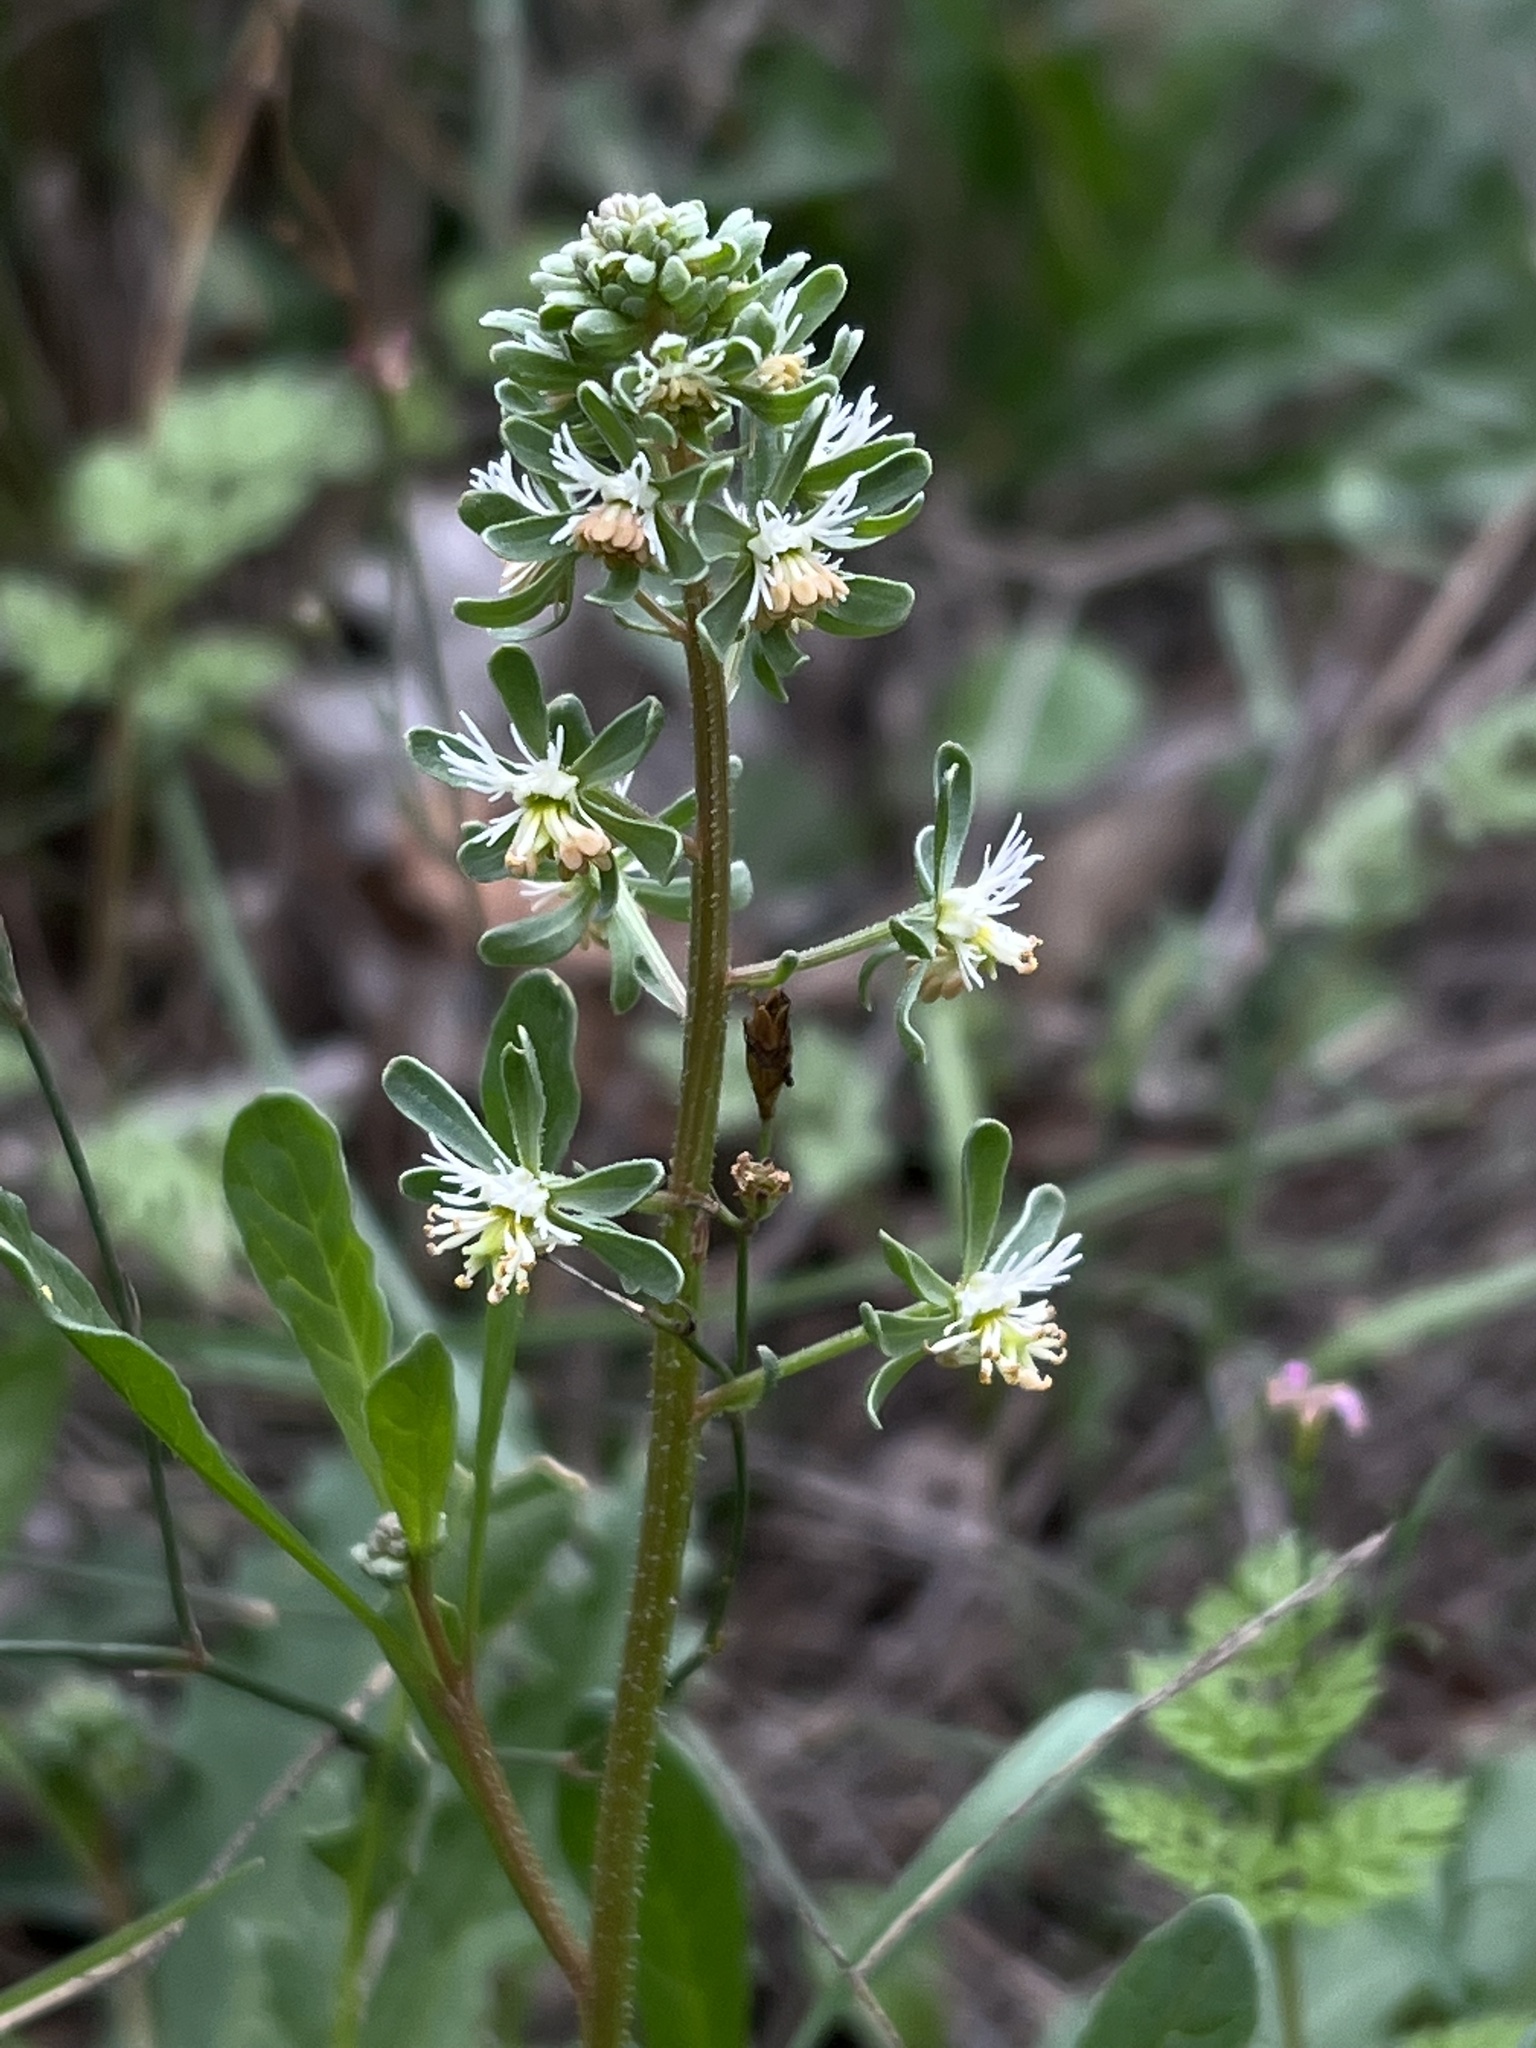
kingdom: Plantae
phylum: Tracheophyta
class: Magnoliopsida
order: Brassicales
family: Resedaceae
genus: Reseda
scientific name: Reseda phyteuma
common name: Corn mignonette
